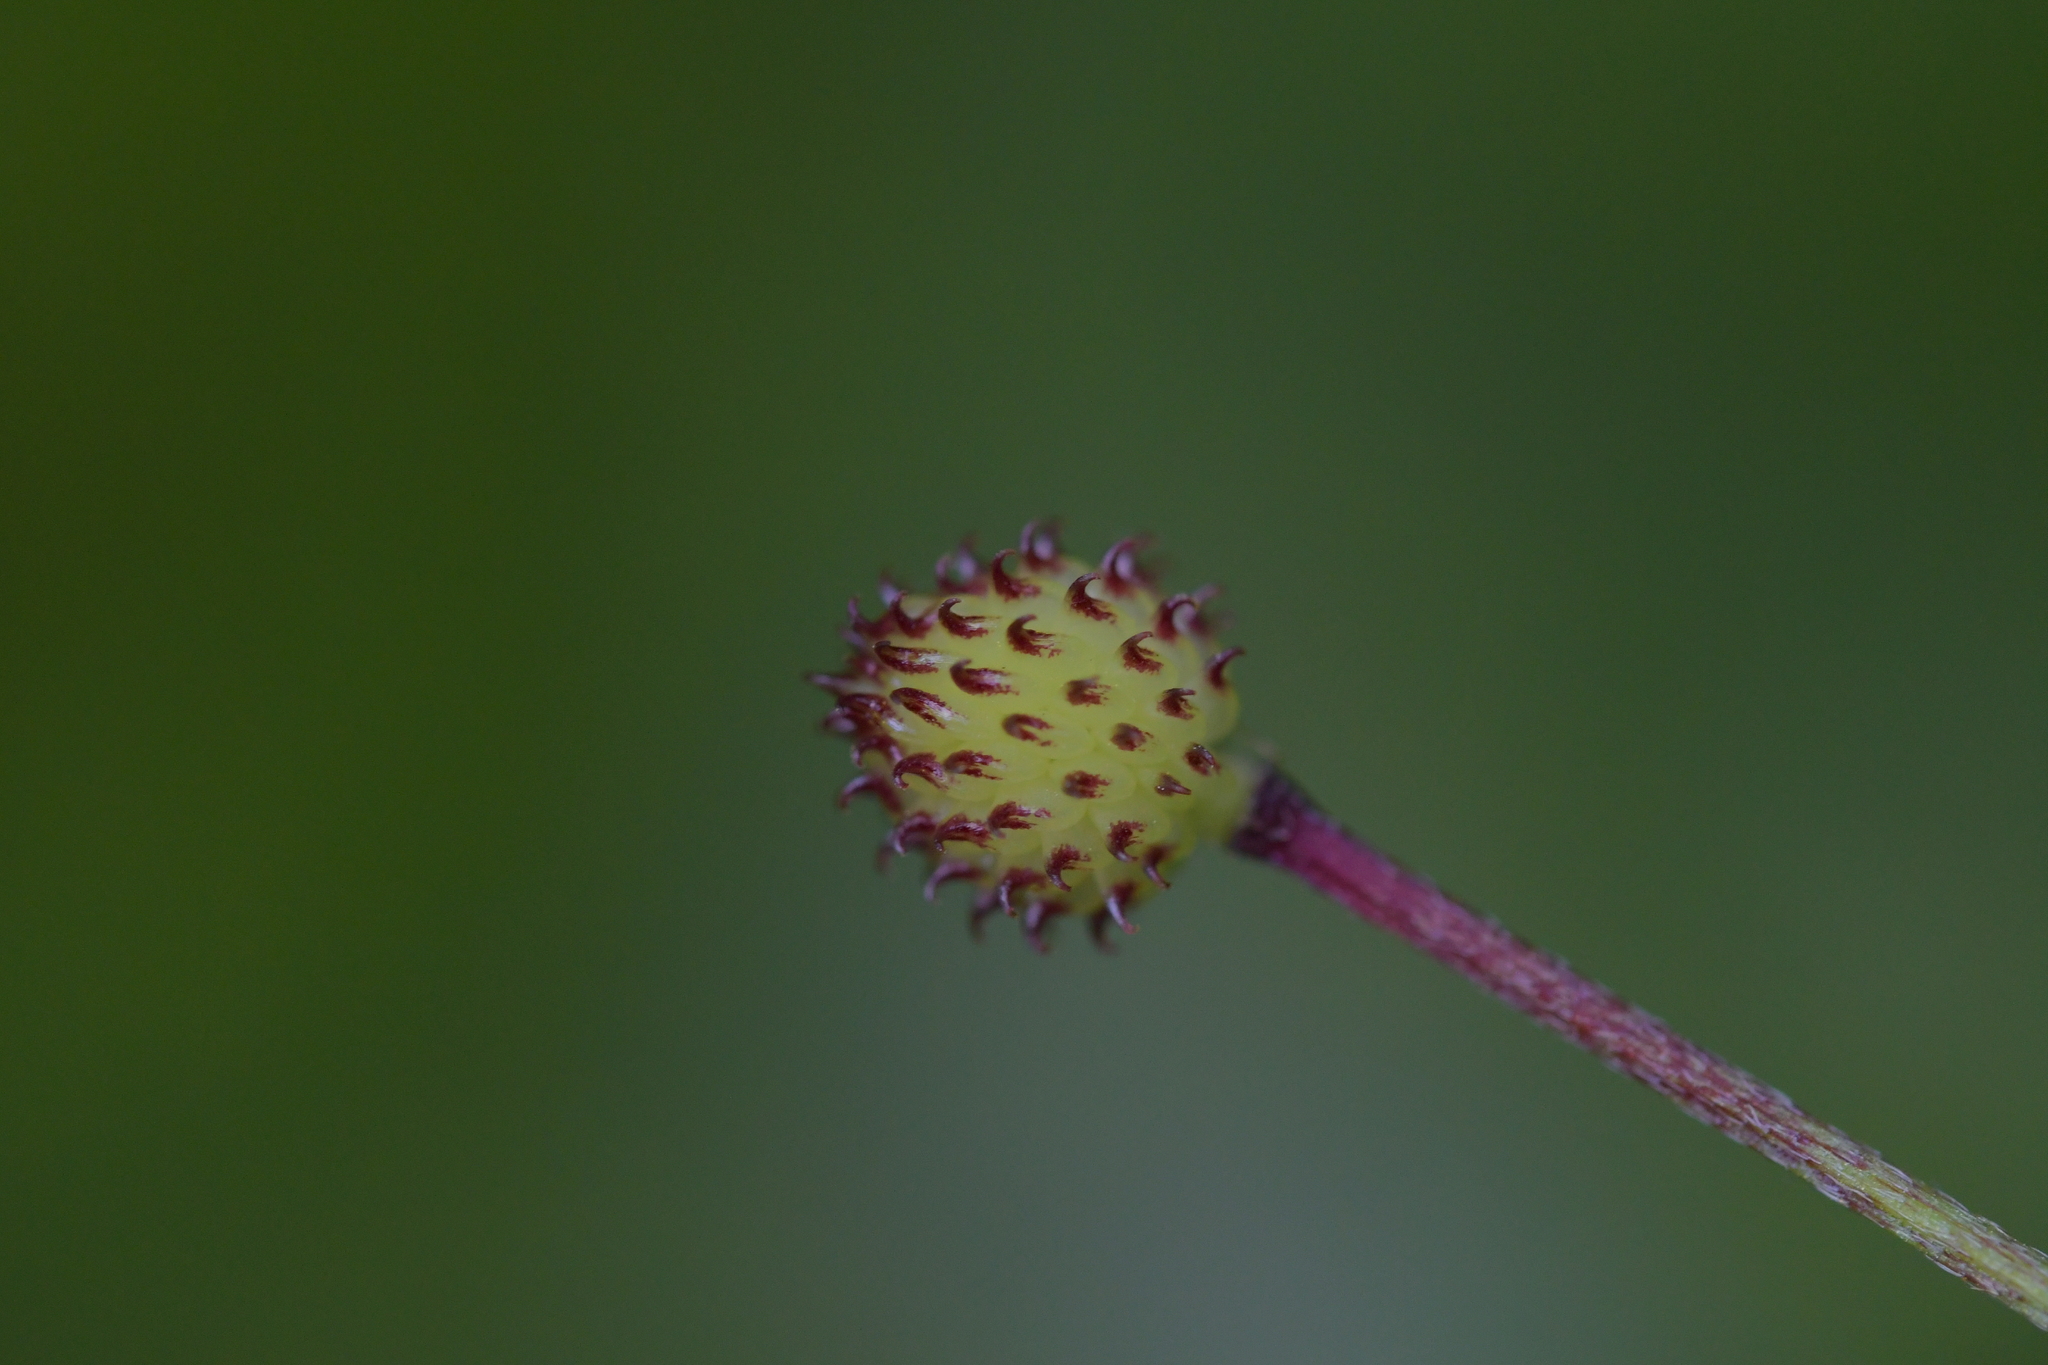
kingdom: Plantae
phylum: Tracheophyta
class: Magnoliopsida
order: Ranunculales
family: Ranunculaceae
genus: Ranunculus
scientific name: Ranunculus reflexus
